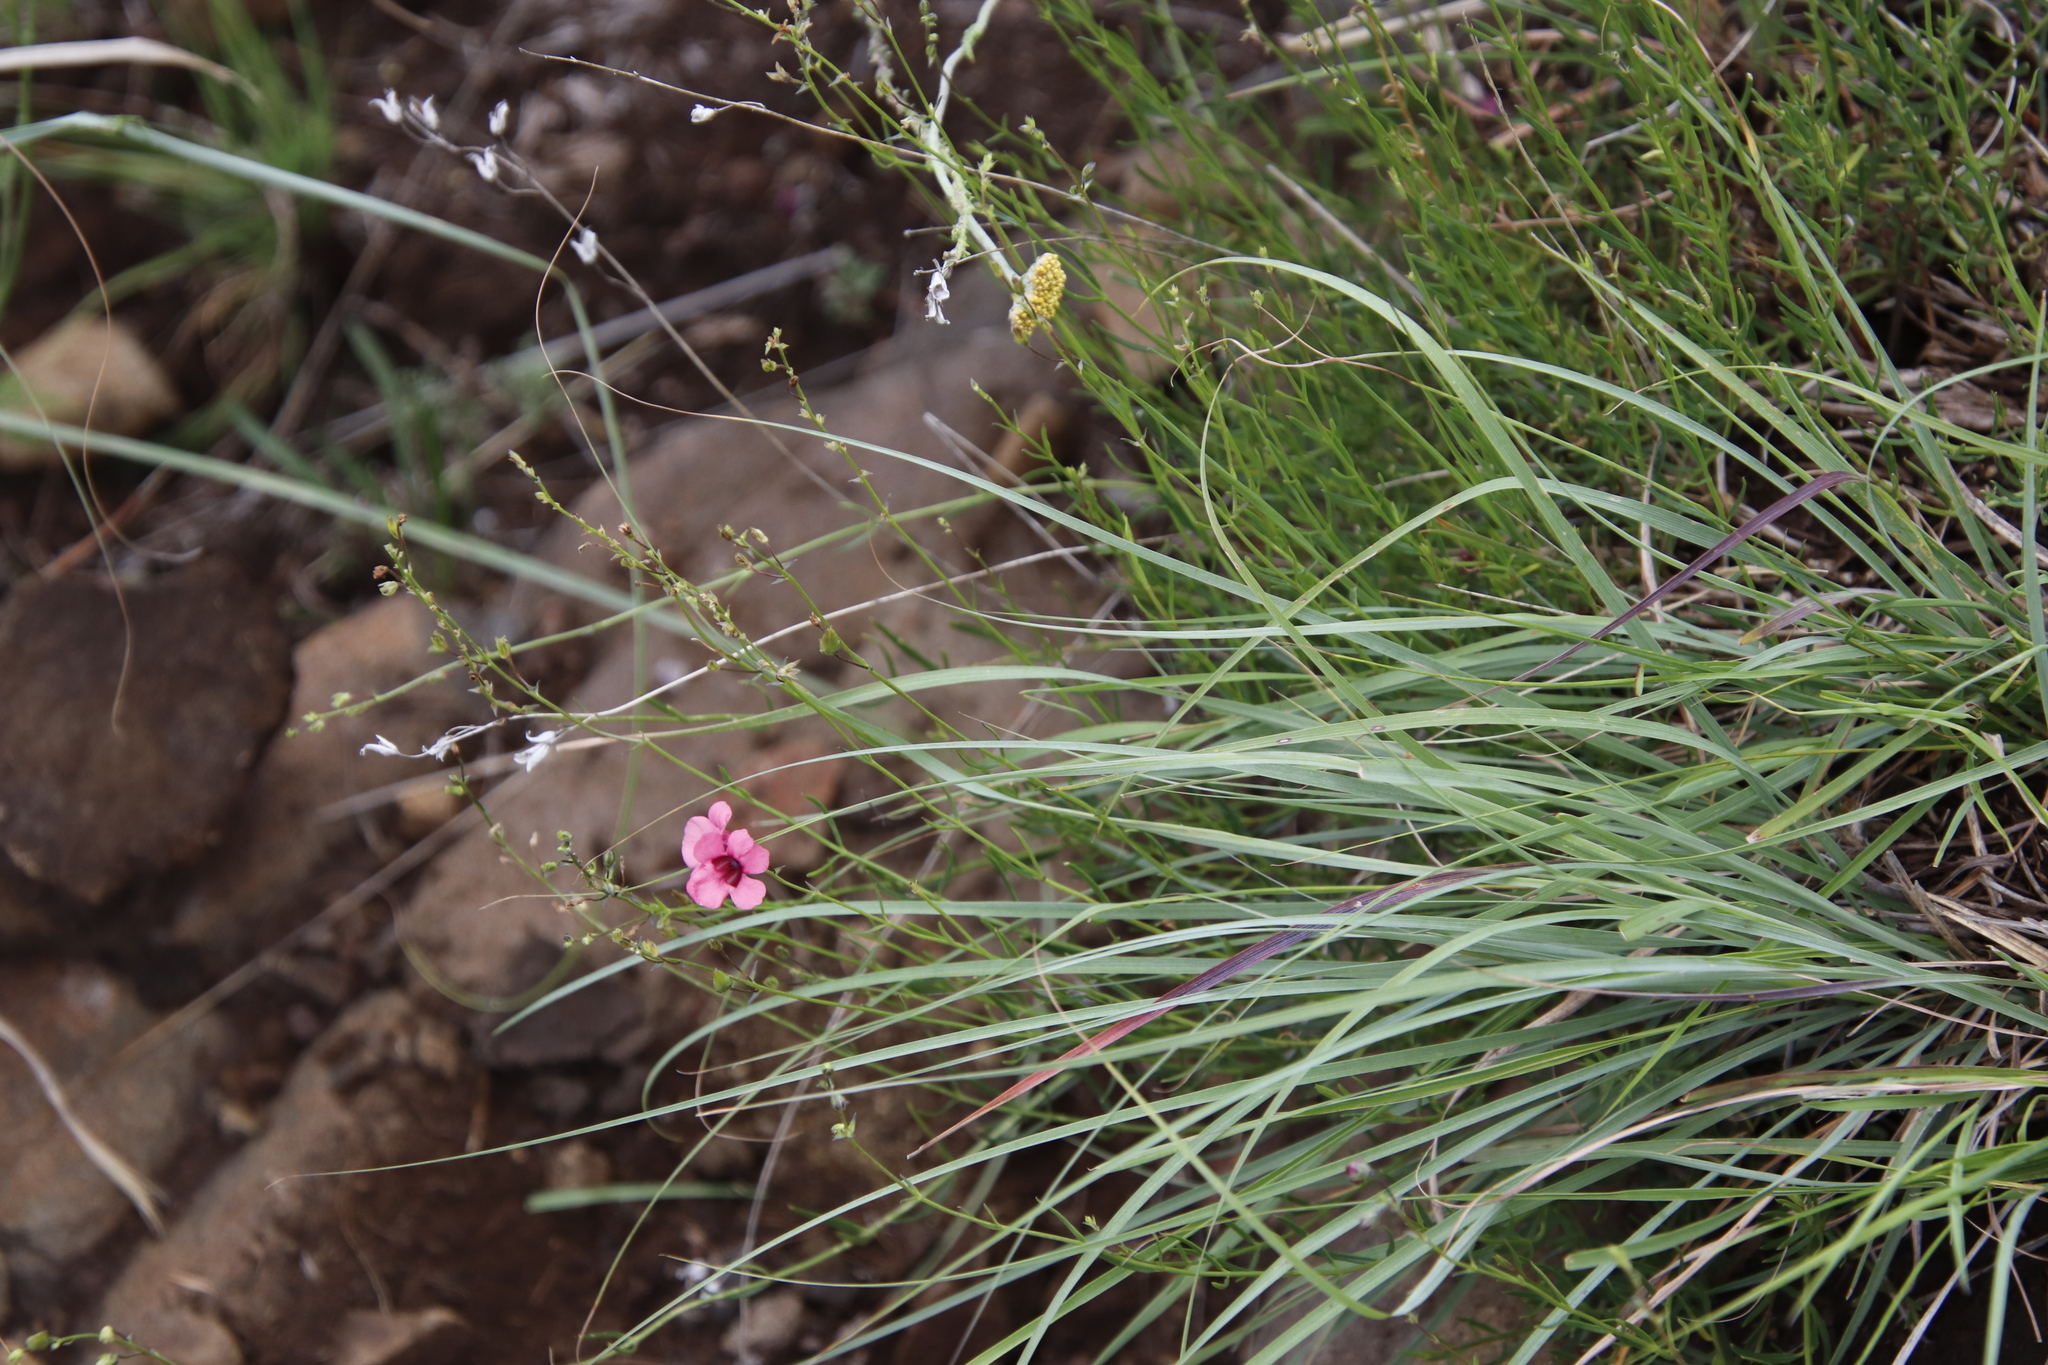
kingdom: Plantae
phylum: Tracheophyta
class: Magnoliopsida
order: Lamiales
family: Scrophulariaceae
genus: Diascia
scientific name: Diascia integerrima
